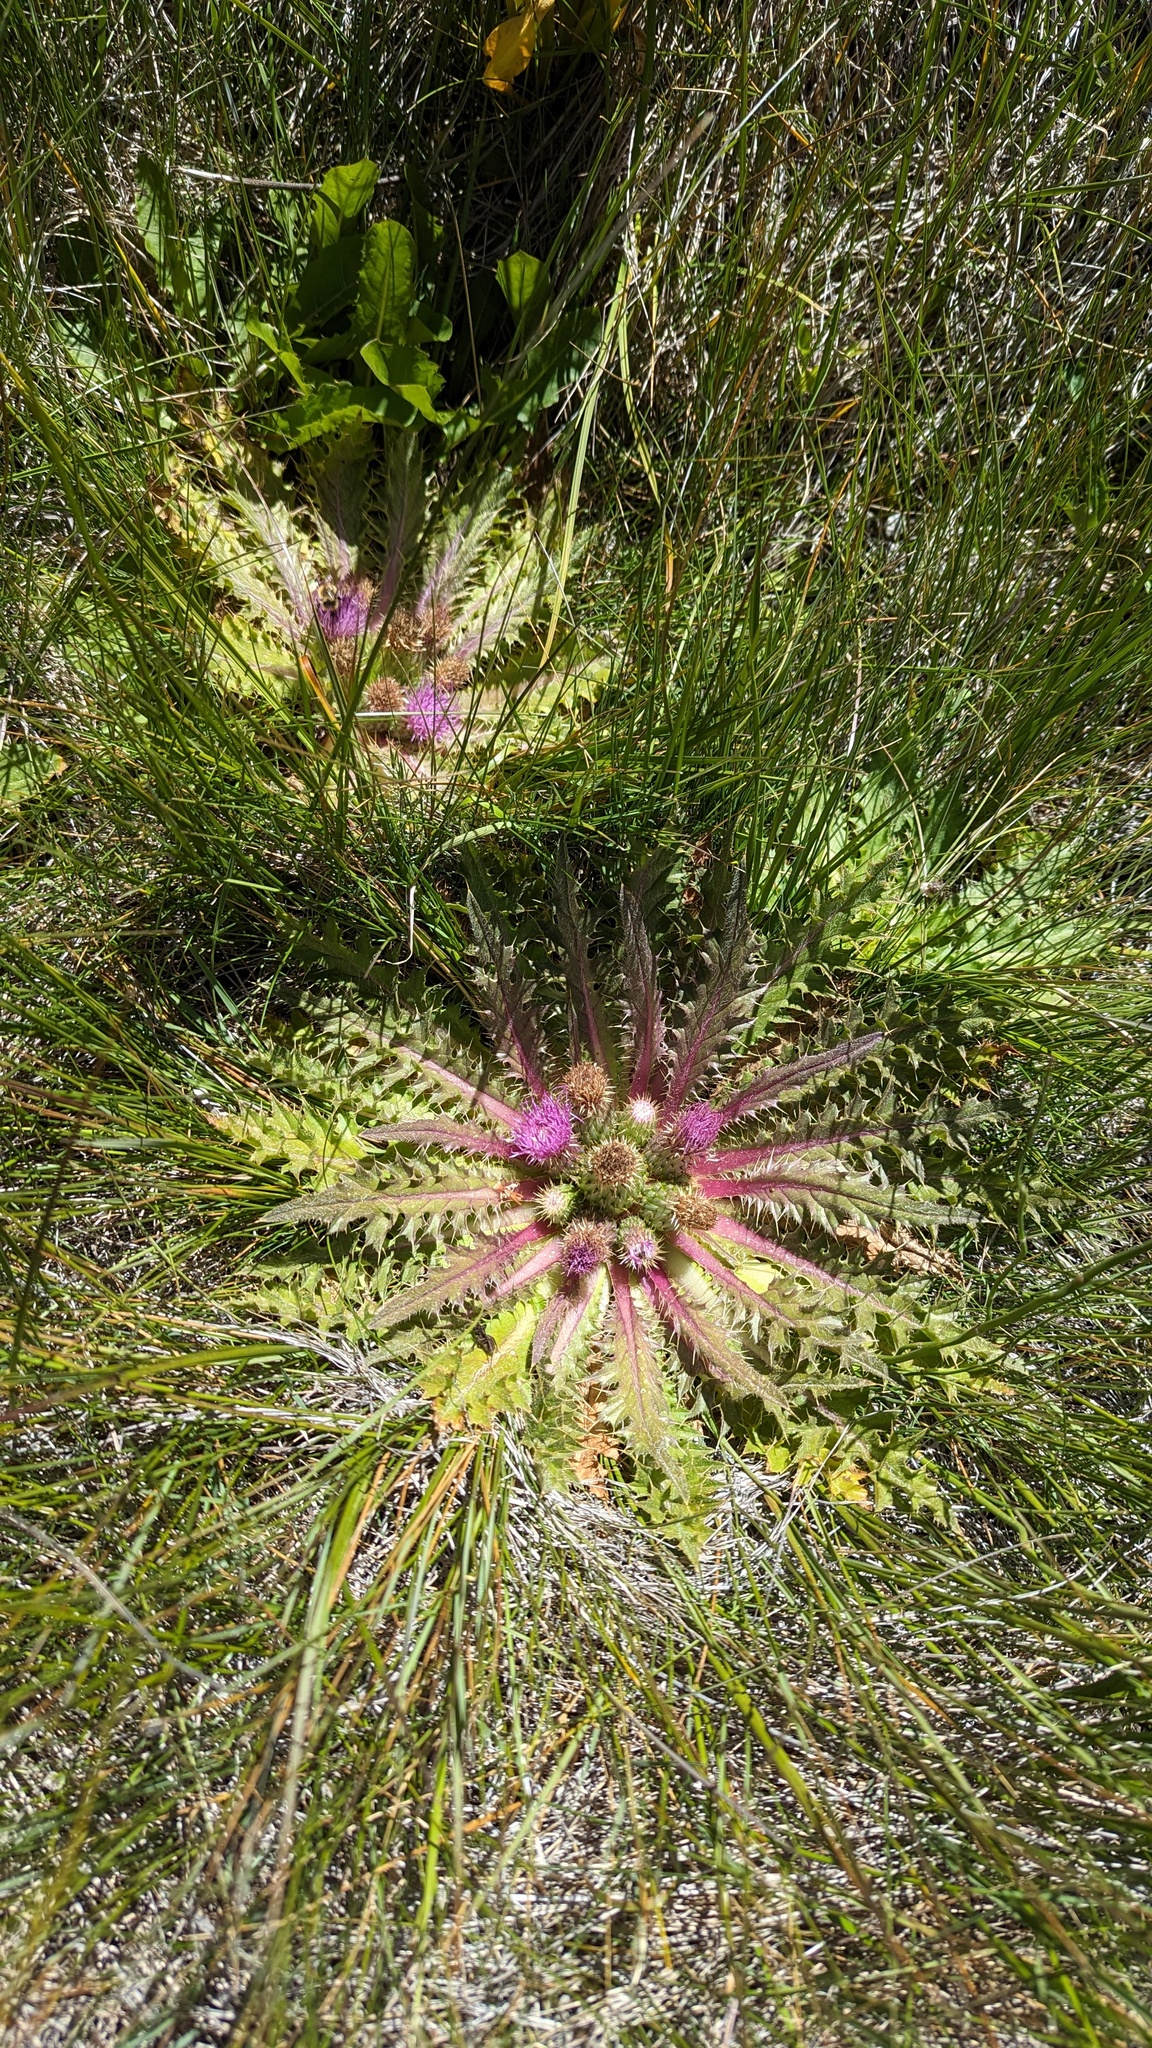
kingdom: Plantae
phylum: Tracheophyta
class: Magnoliopsida
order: Asterales
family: Asteraceae
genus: Cirsium
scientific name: Cirsium congdonii
